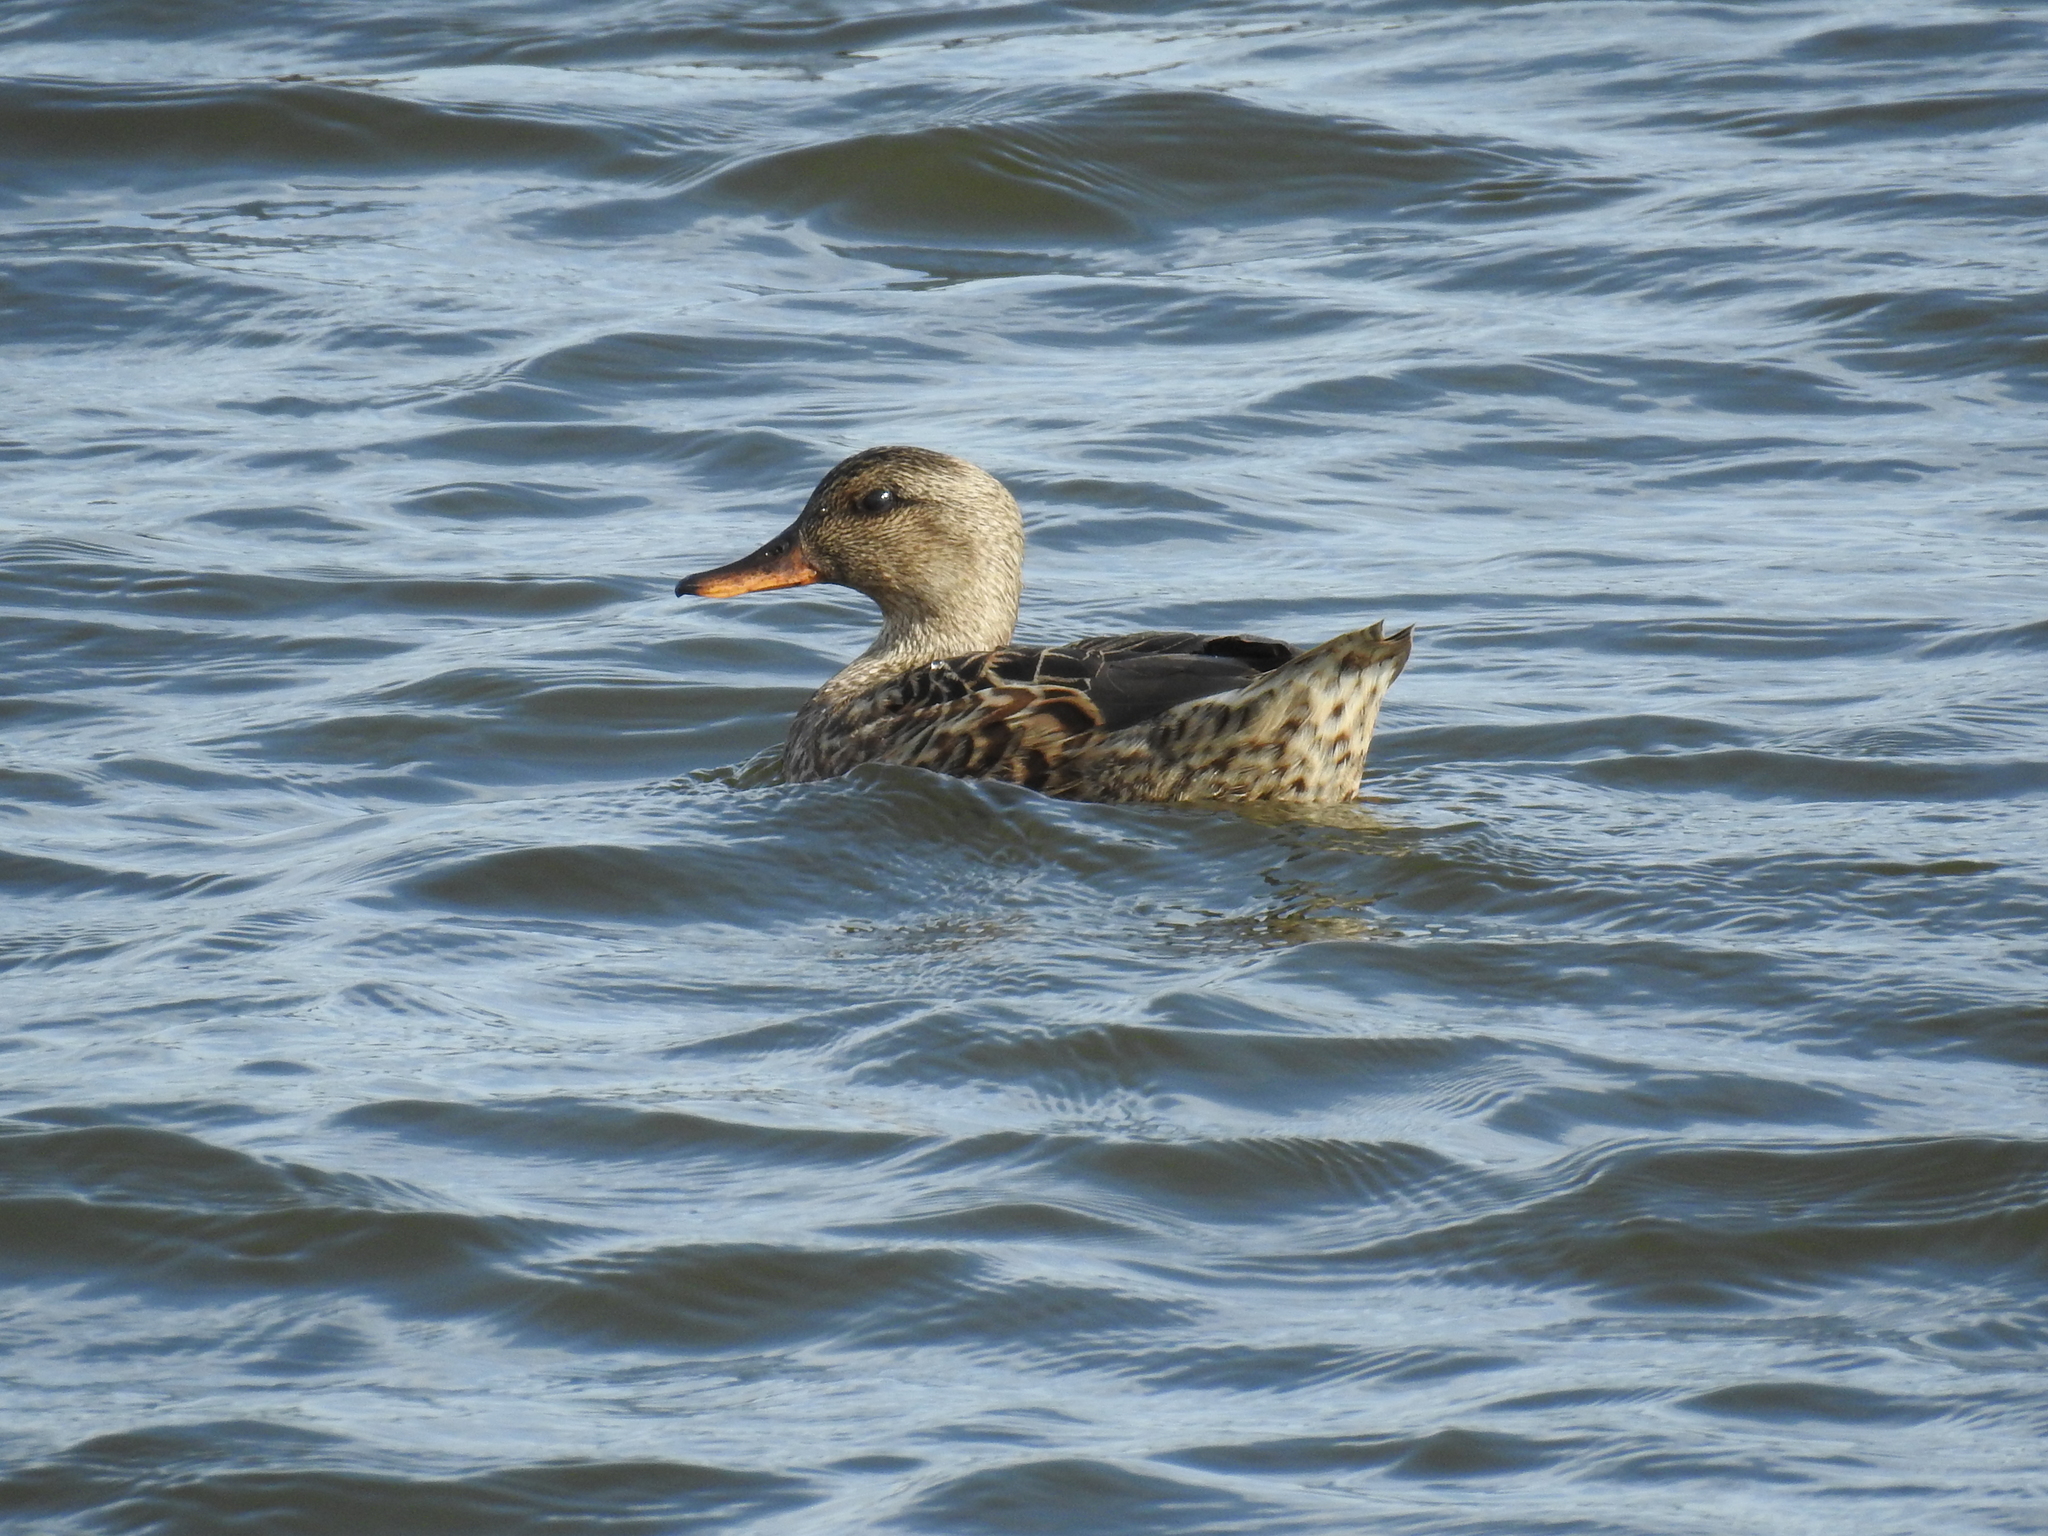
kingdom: Animalia
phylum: Chordata
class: Aves
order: Anseriformes
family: Anatidae
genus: Mareca
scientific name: Mareca strepera
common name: Gadwall
